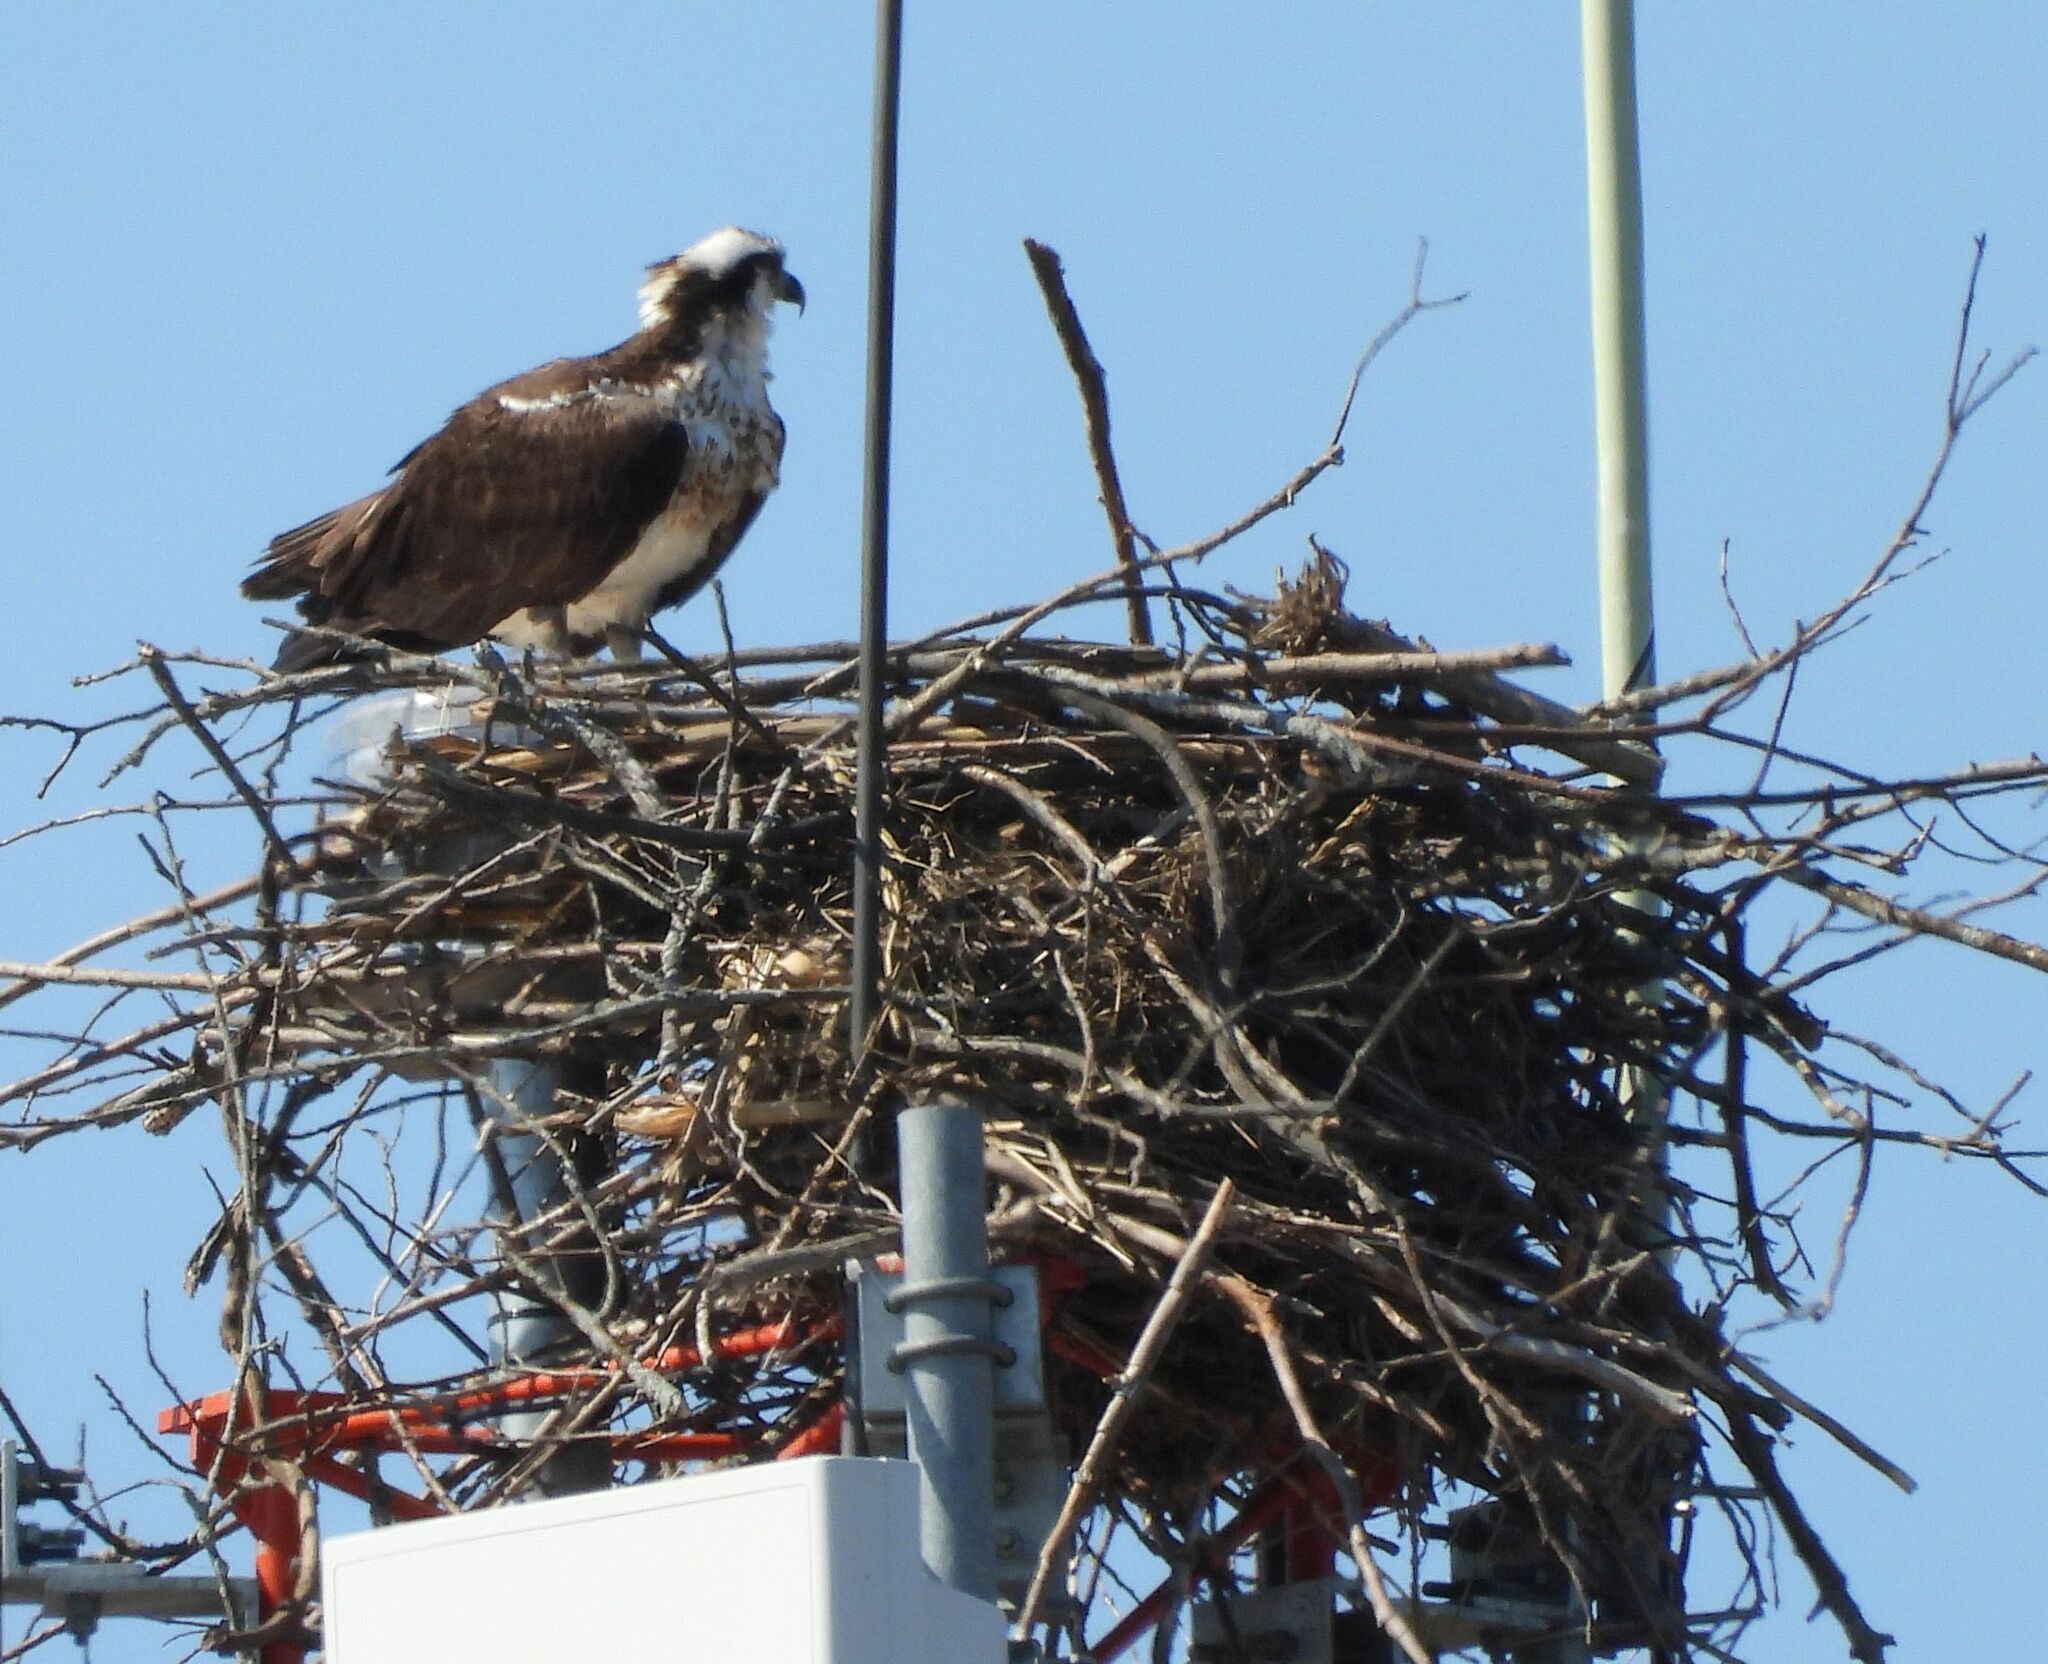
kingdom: Animalia
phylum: Chordata
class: Aves
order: Accipitriformes
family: Pandionidae
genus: Pandion
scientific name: Pandion haliaetus
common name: Osprey
